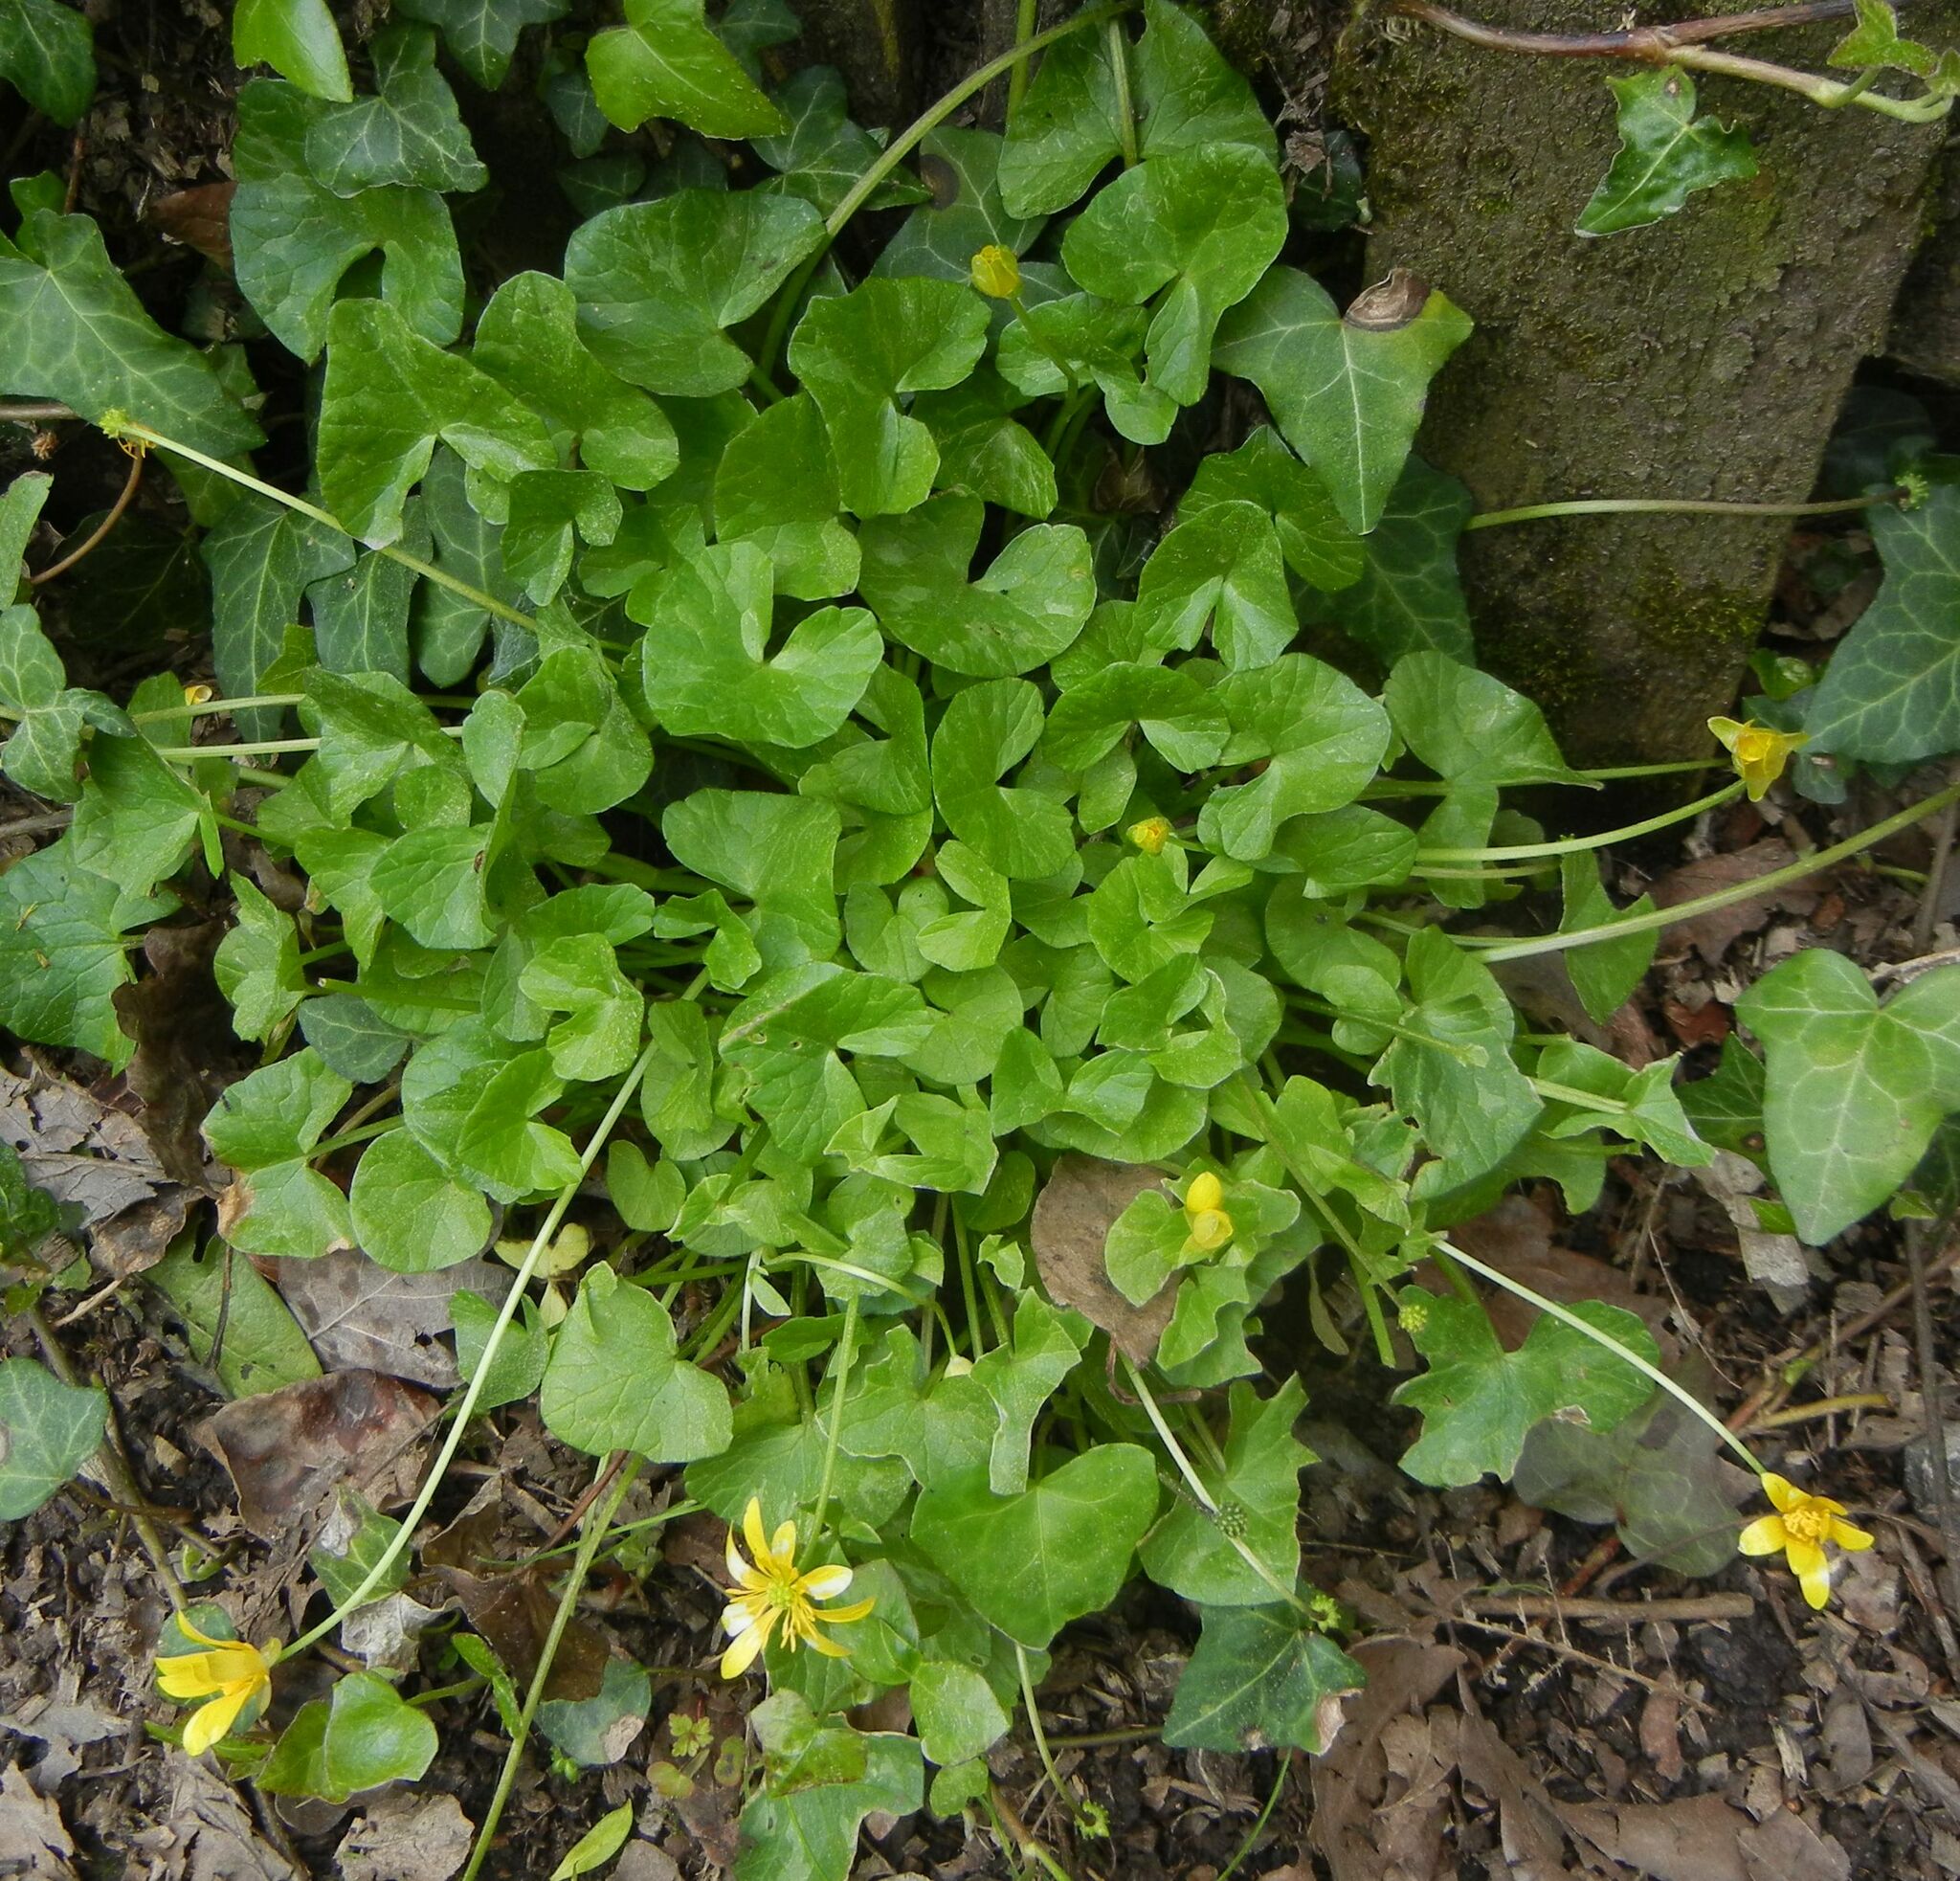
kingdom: Plantae
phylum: Tracheophyta
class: Magnoliopsida
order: Ranunculales
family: Ranunculaceae
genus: Ficaria
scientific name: Ficaria verna
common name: Lesser celandine
